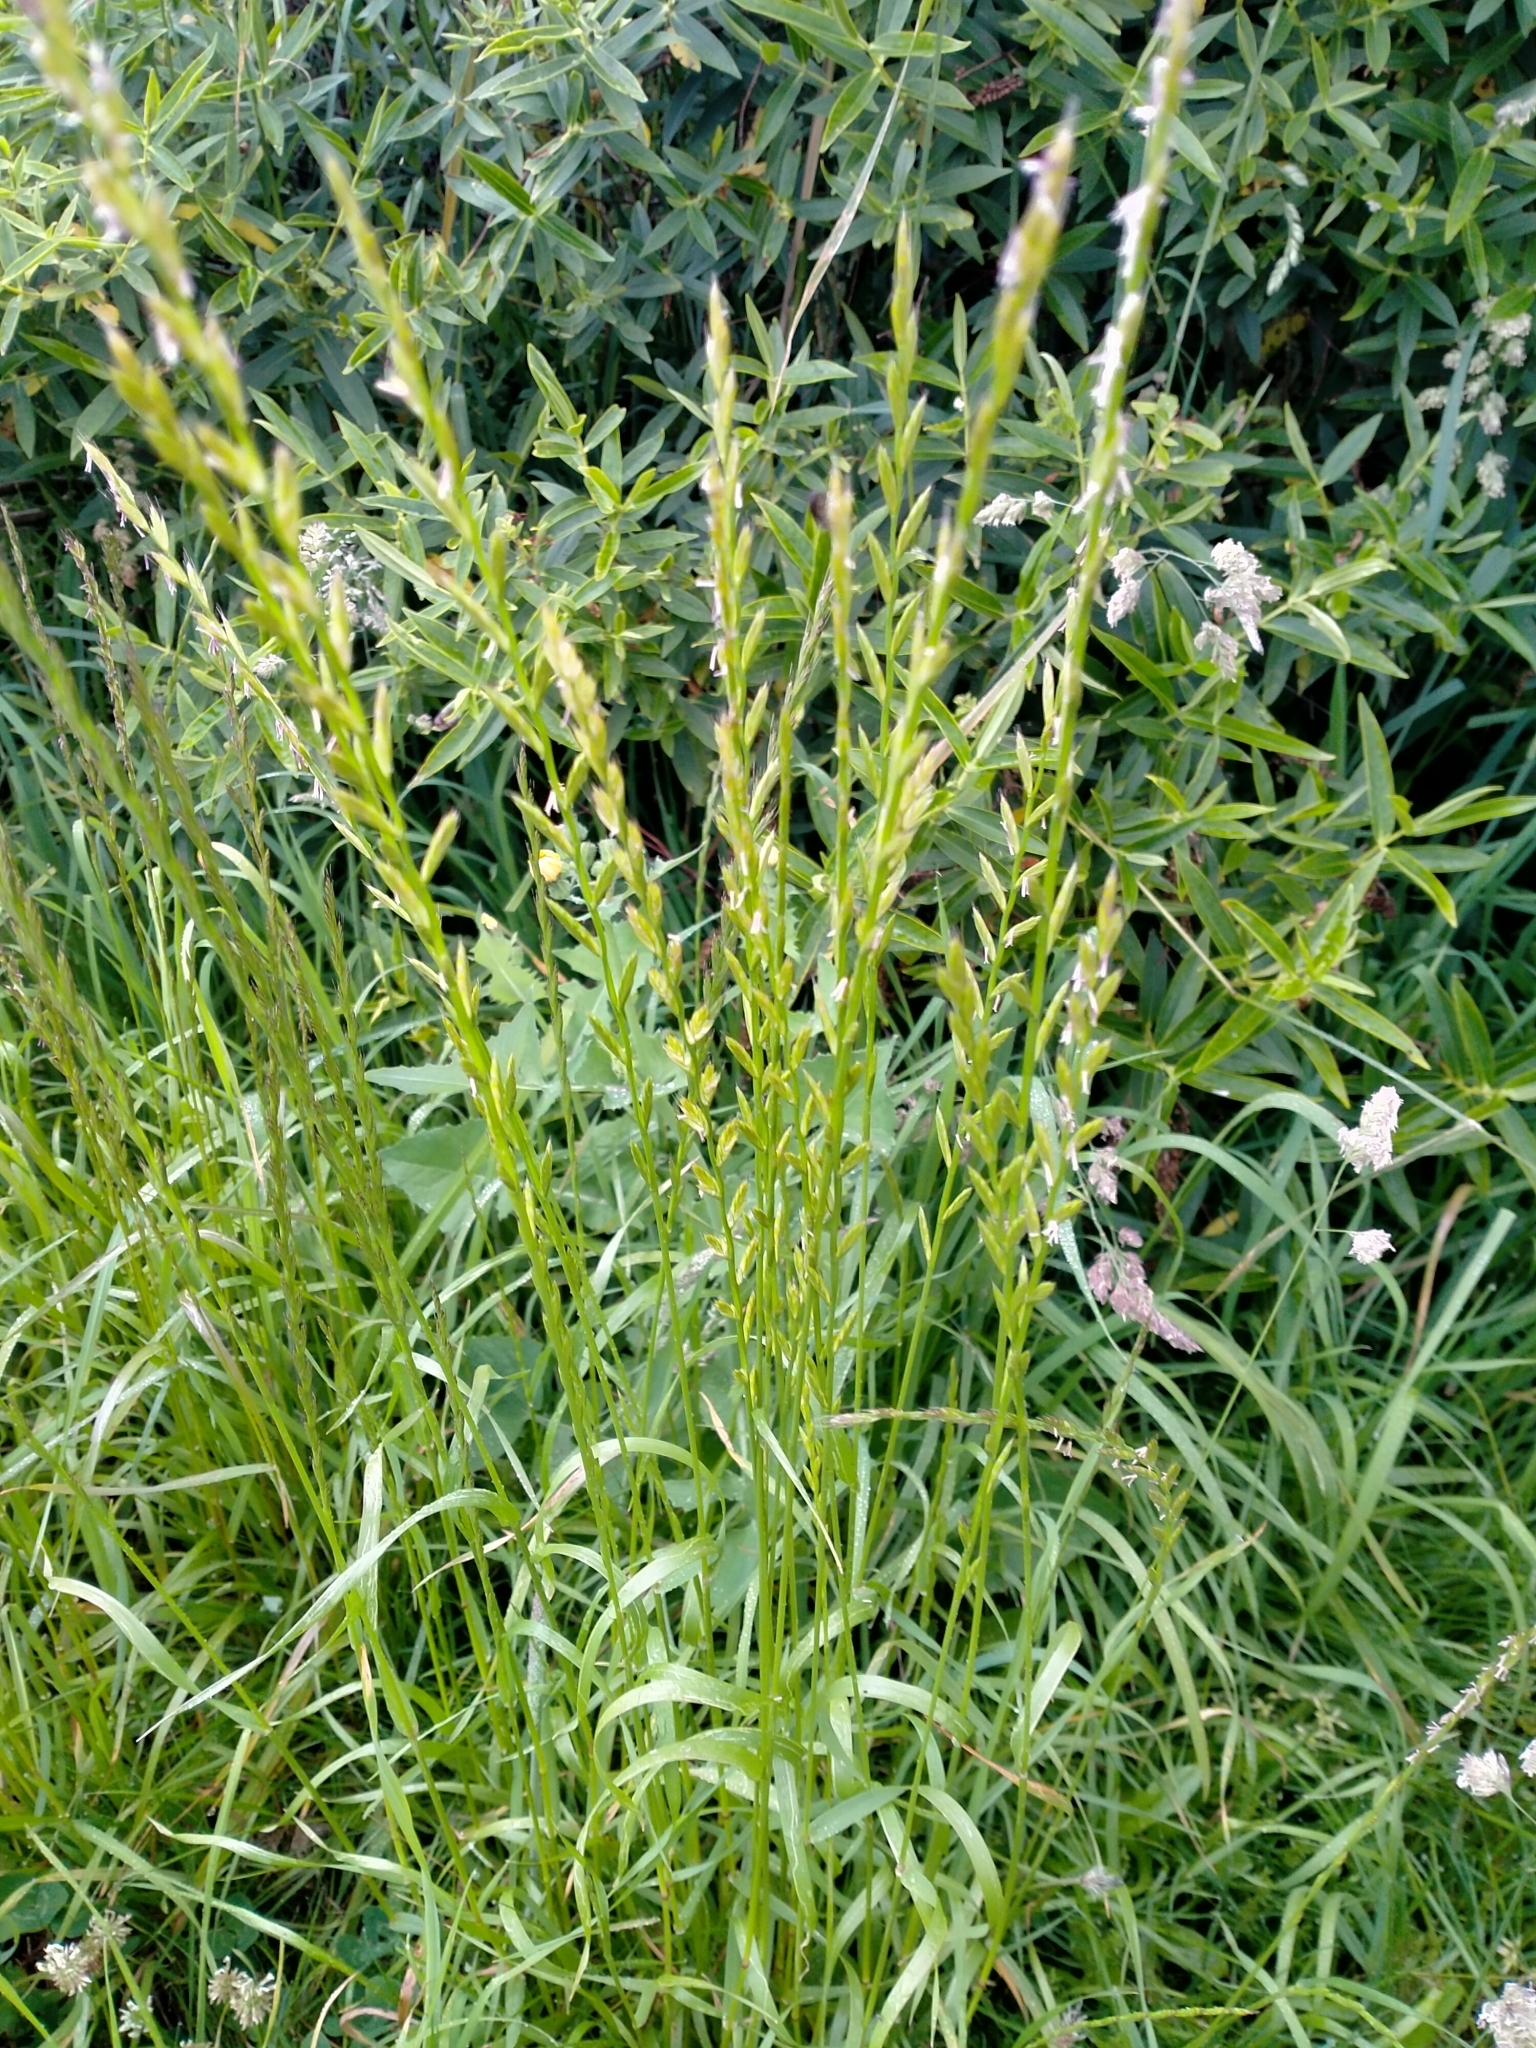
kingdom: Plantae
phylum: Tracheophyta
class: Liliopsida
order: Poales
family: Poaceae
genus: Lolium
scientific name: Lolium multiflorum
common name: Annual ryegrass
